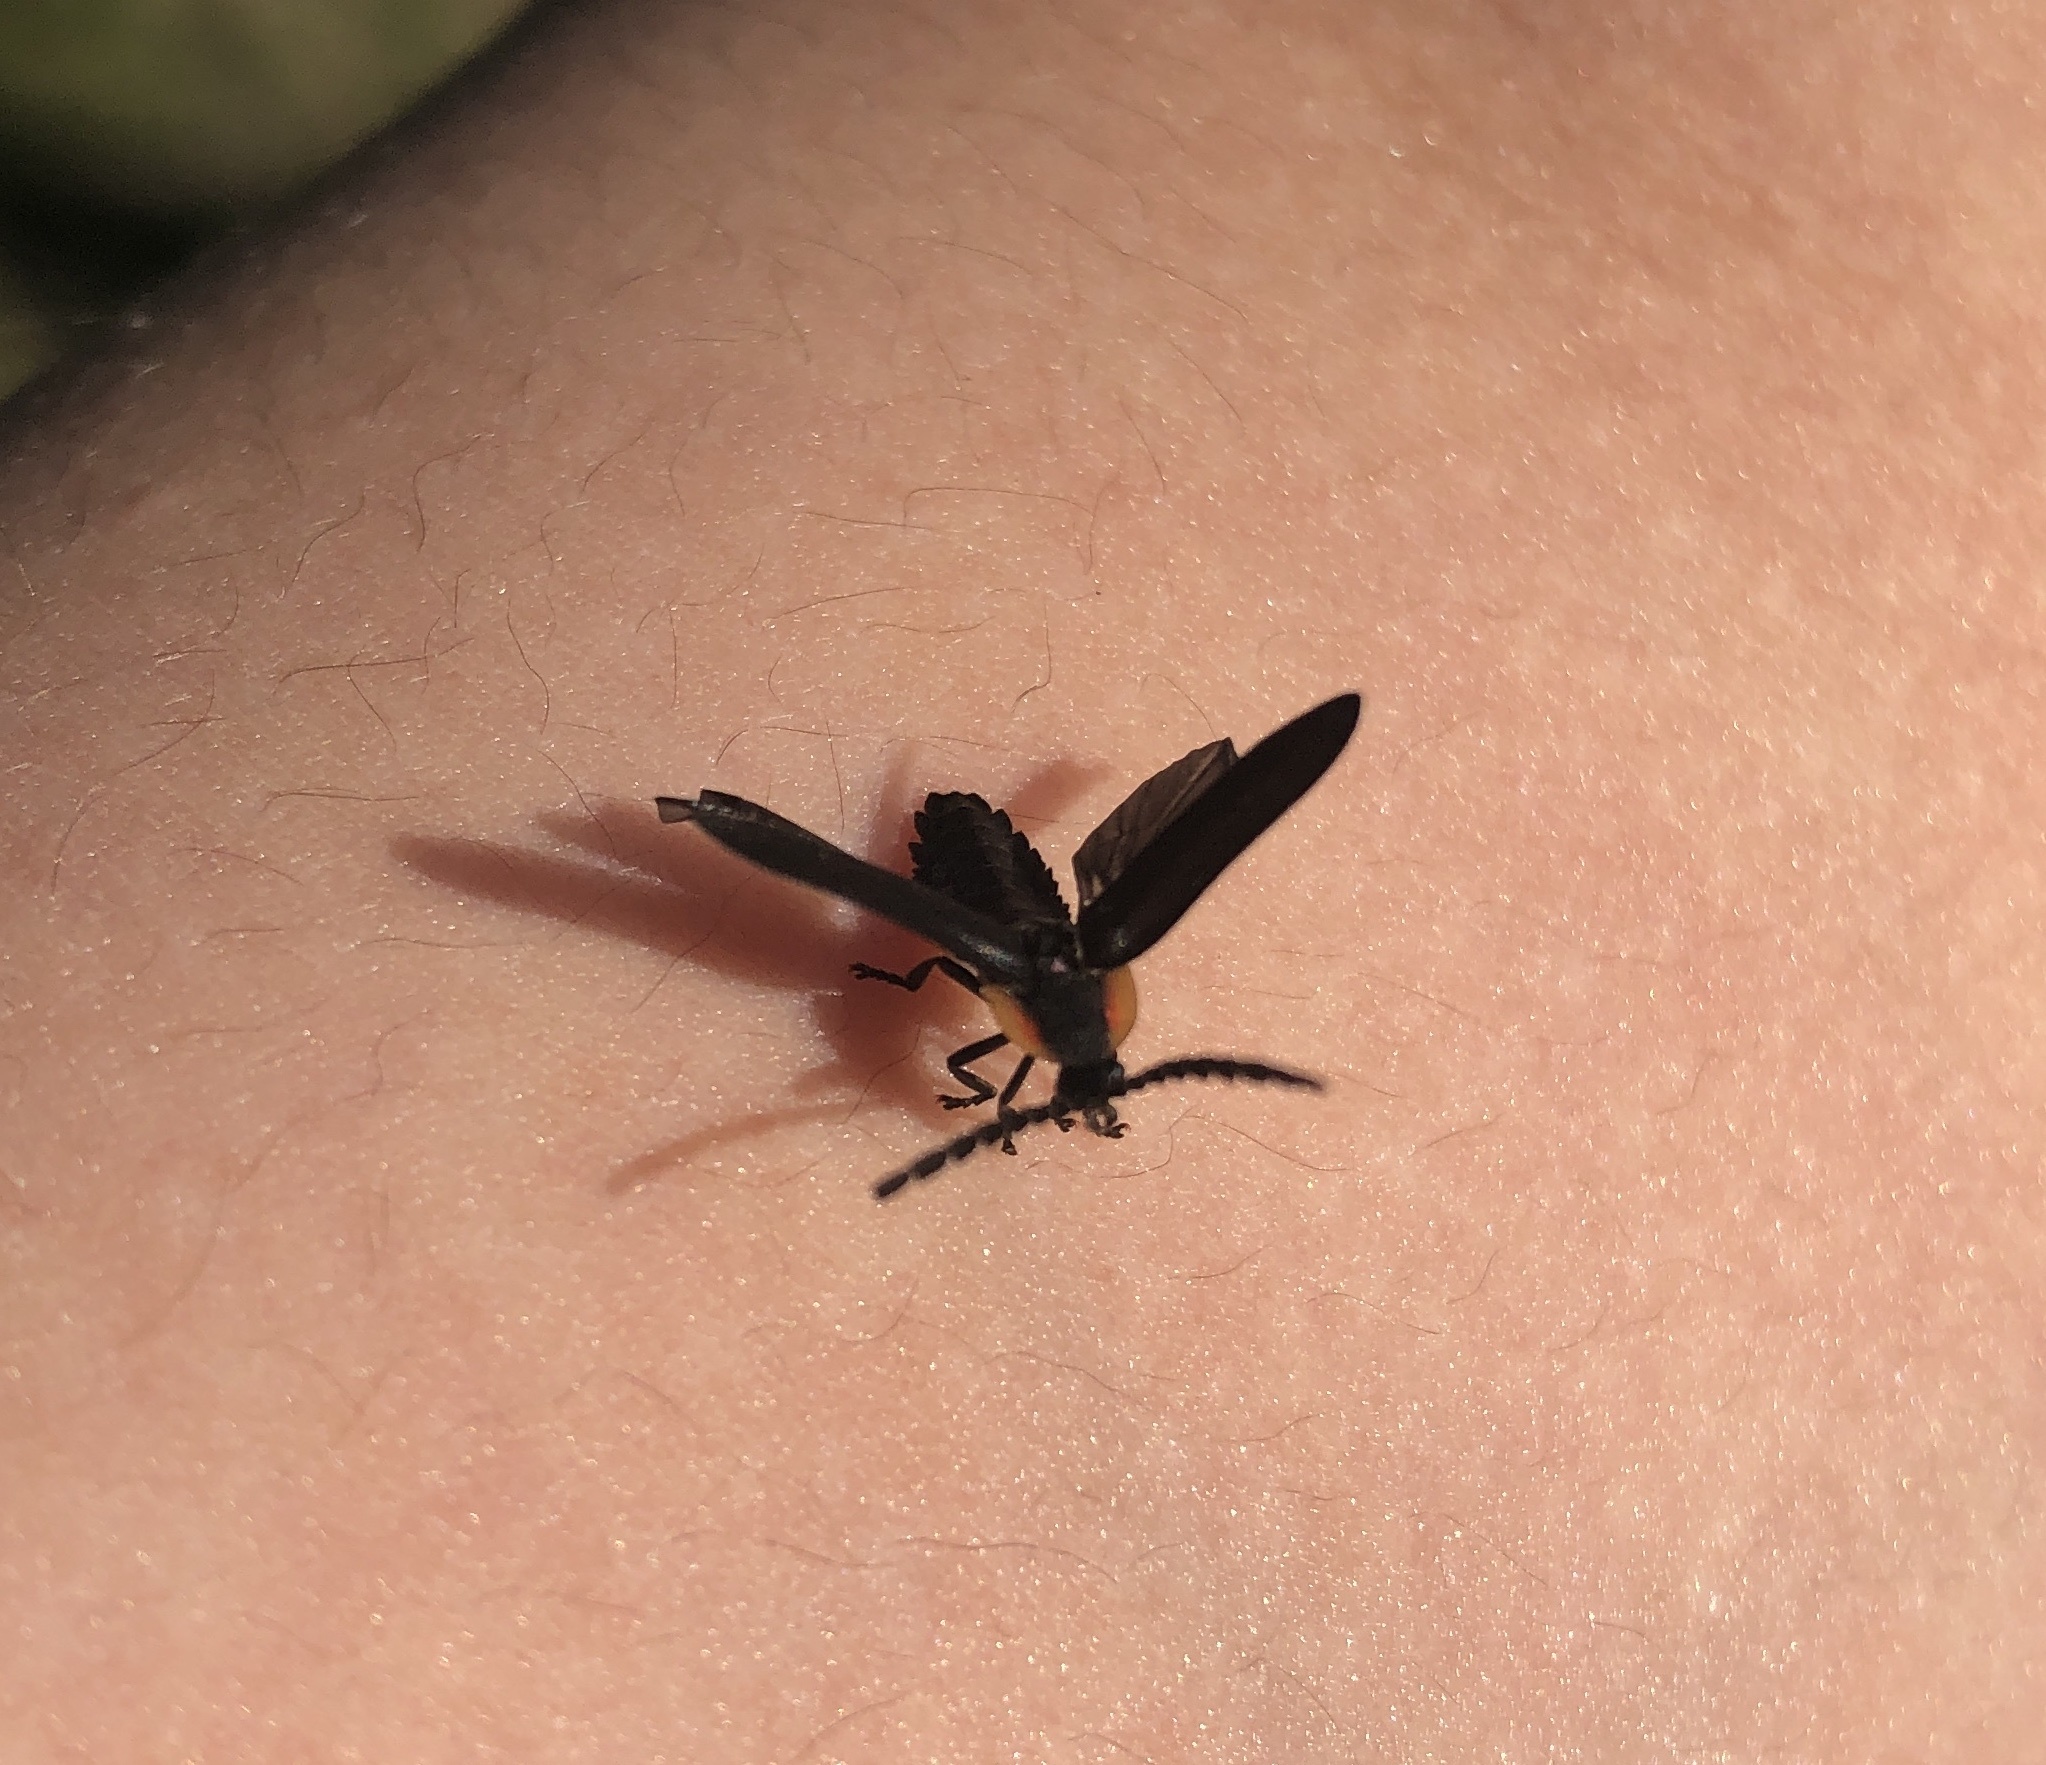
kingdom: Animalia
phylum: Arthropoda
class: Insecta
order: Coleoptera
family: Lampyridae
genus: Lucidota
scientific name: Lucidota atra
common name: Black firefly
